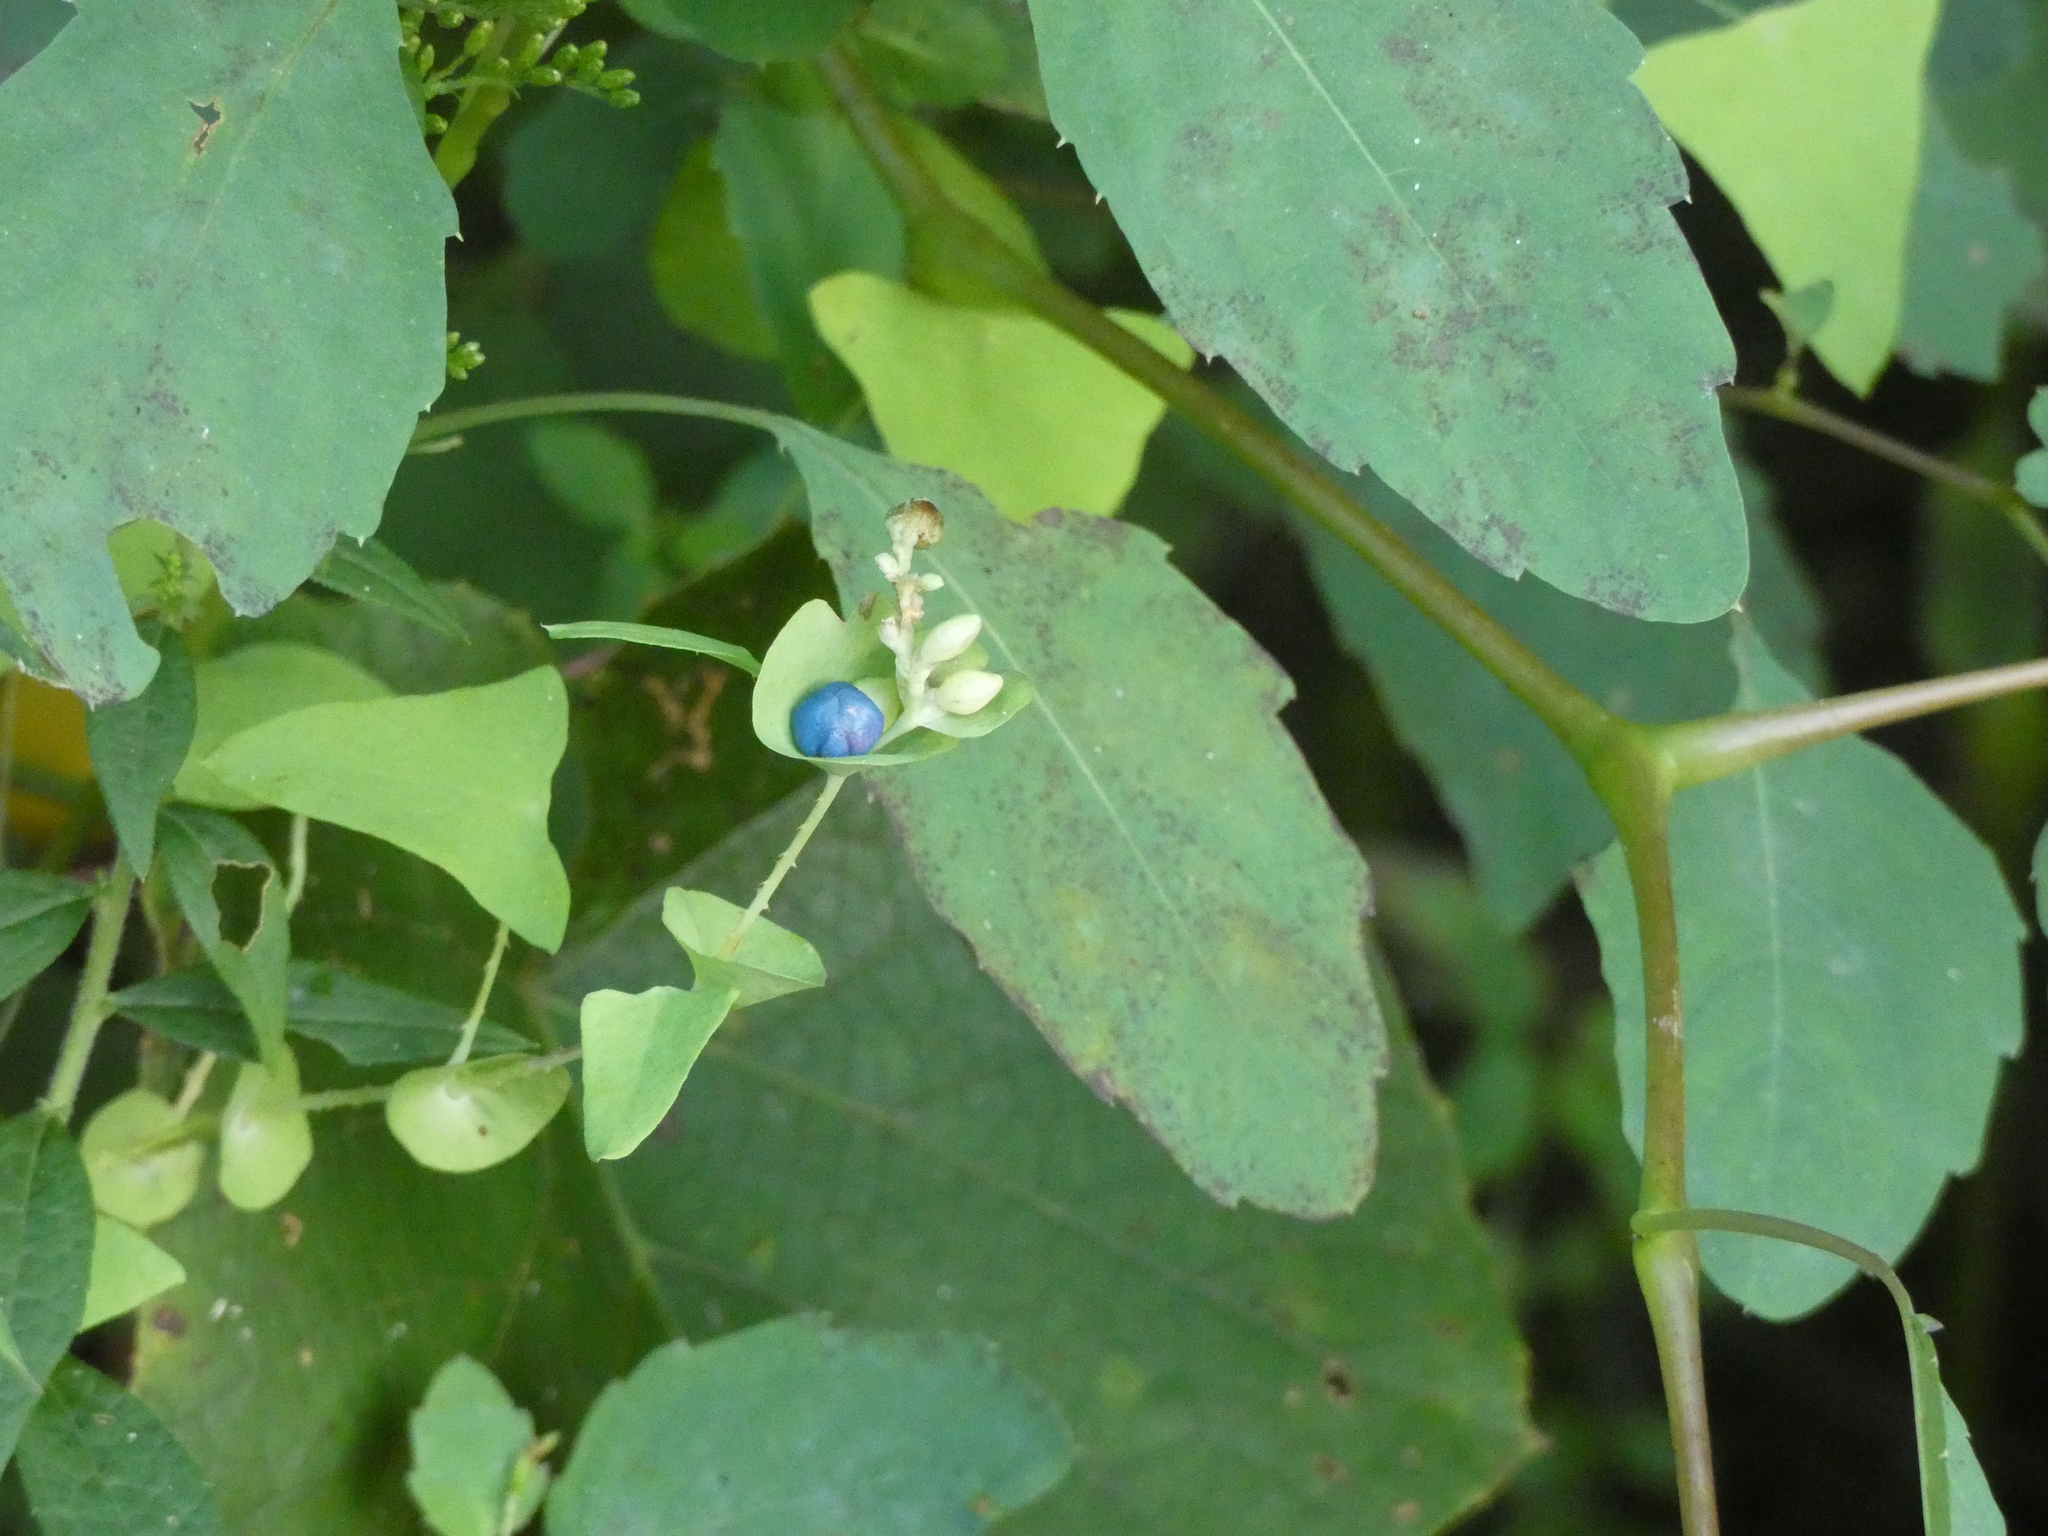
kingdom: Plantae
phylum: Tracheophyta
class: Magnoliopsida
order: Caryophyllales
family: Polygonaceae
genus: Persicaria
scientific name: Persicaria perfoliata
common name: Asiatic tearthumb
